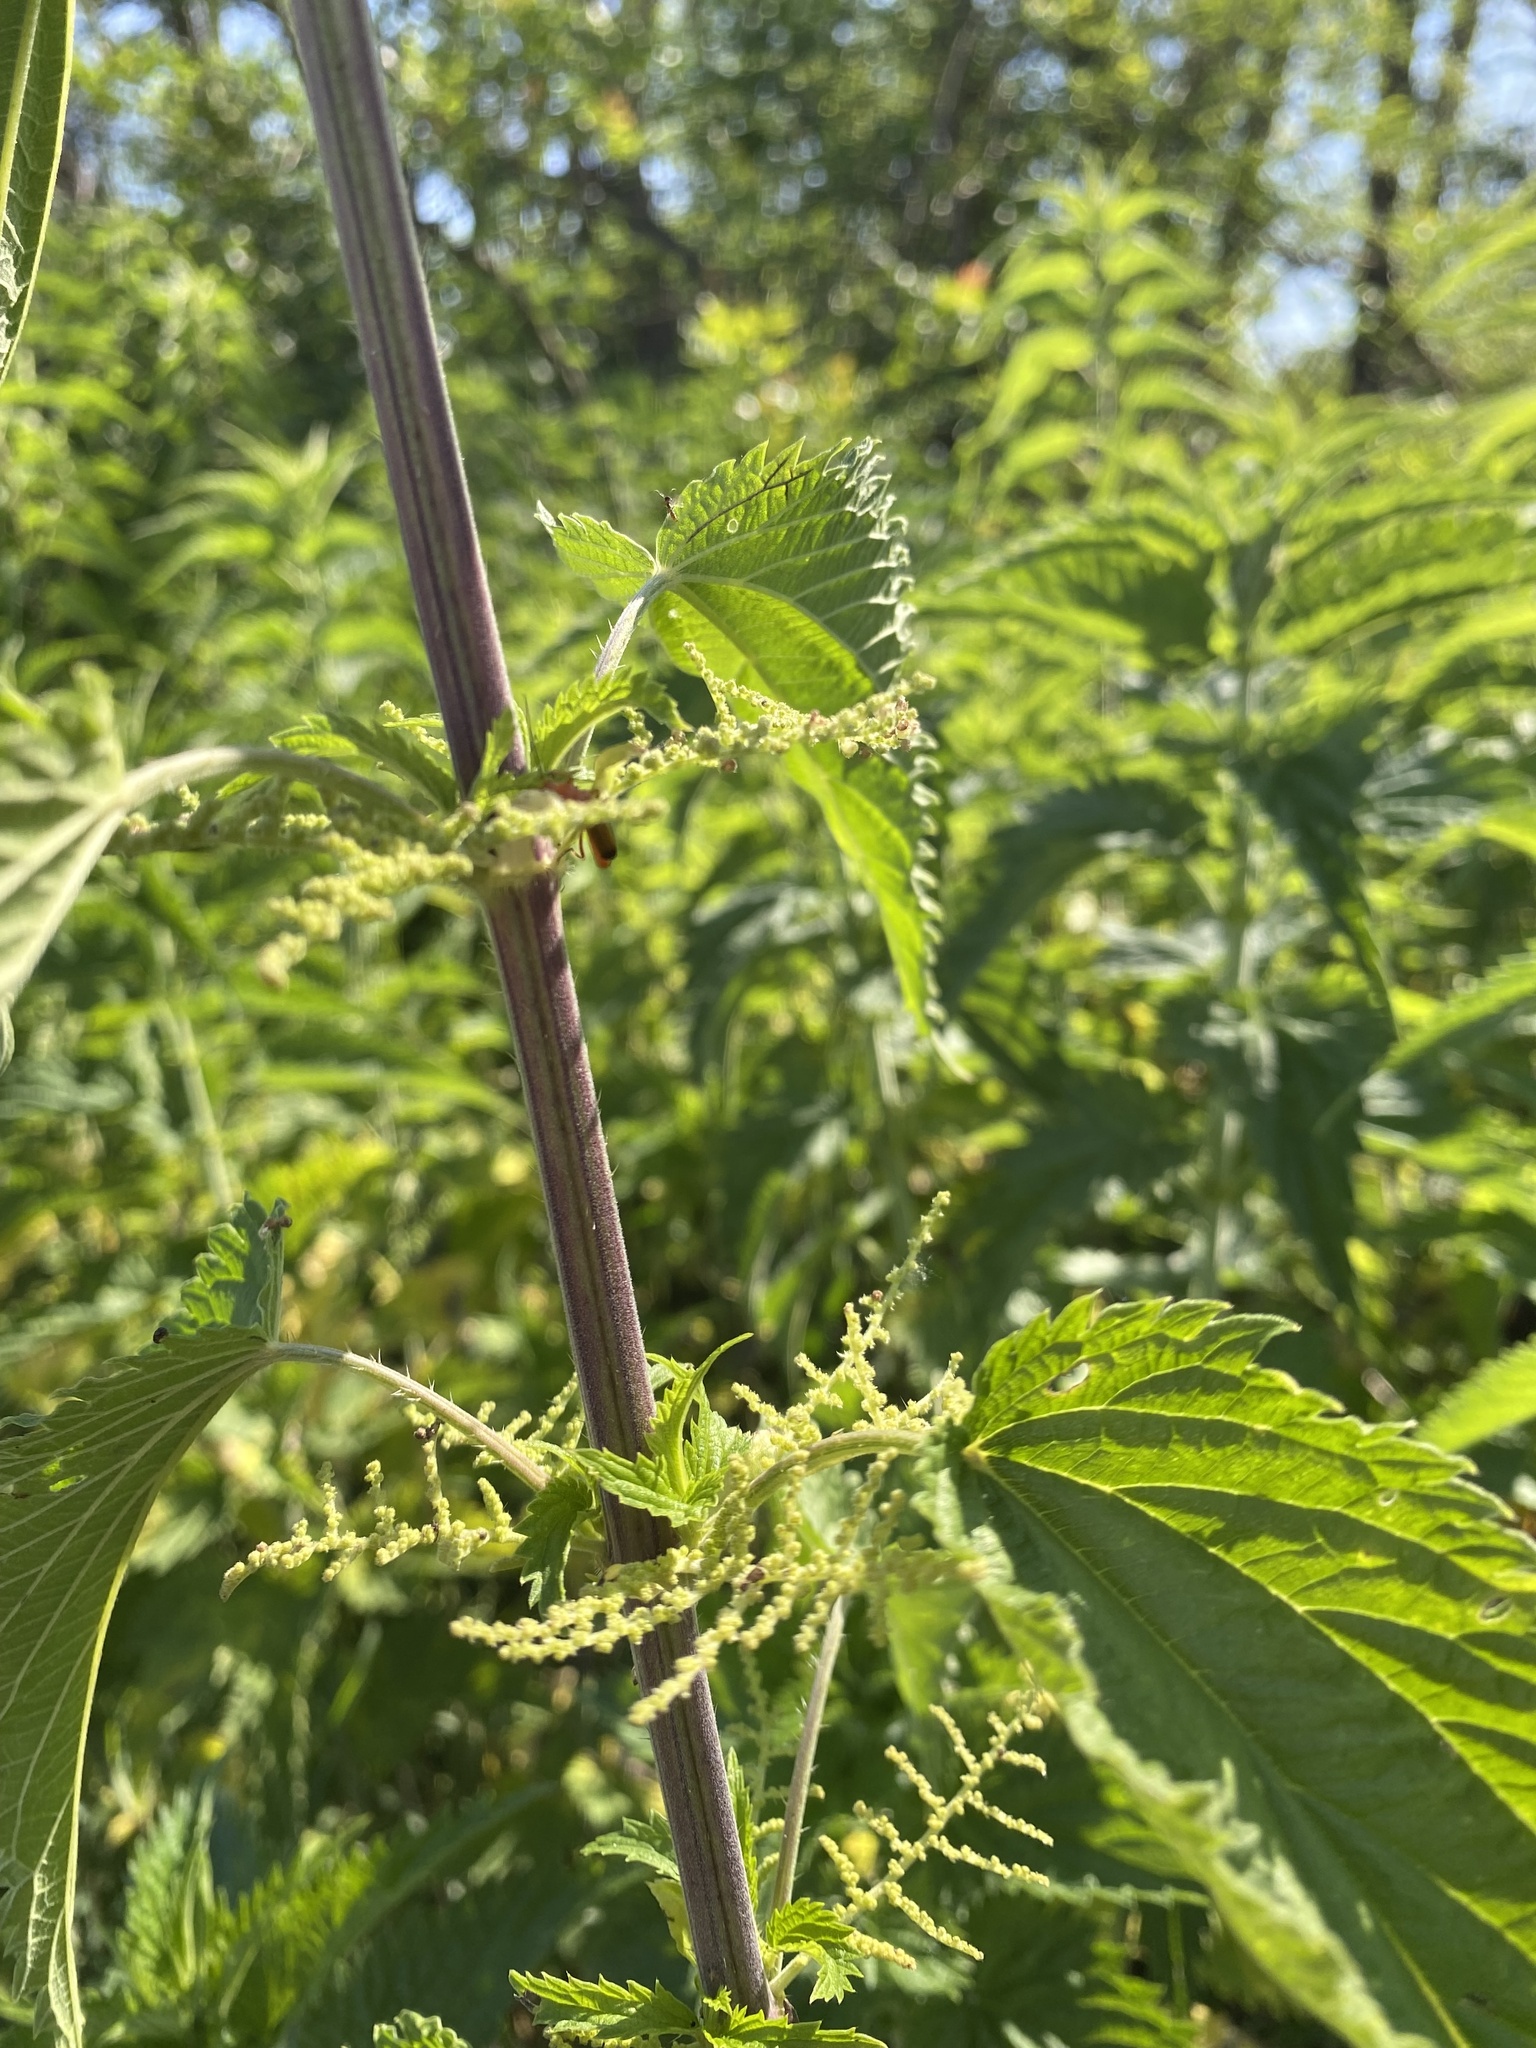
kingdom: Plantae
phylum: Tracheophyta
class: Magnoliopsida
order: Rosales
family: Urticaceae
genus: Urtica
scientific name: Urtica dioica
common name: Common nettle
